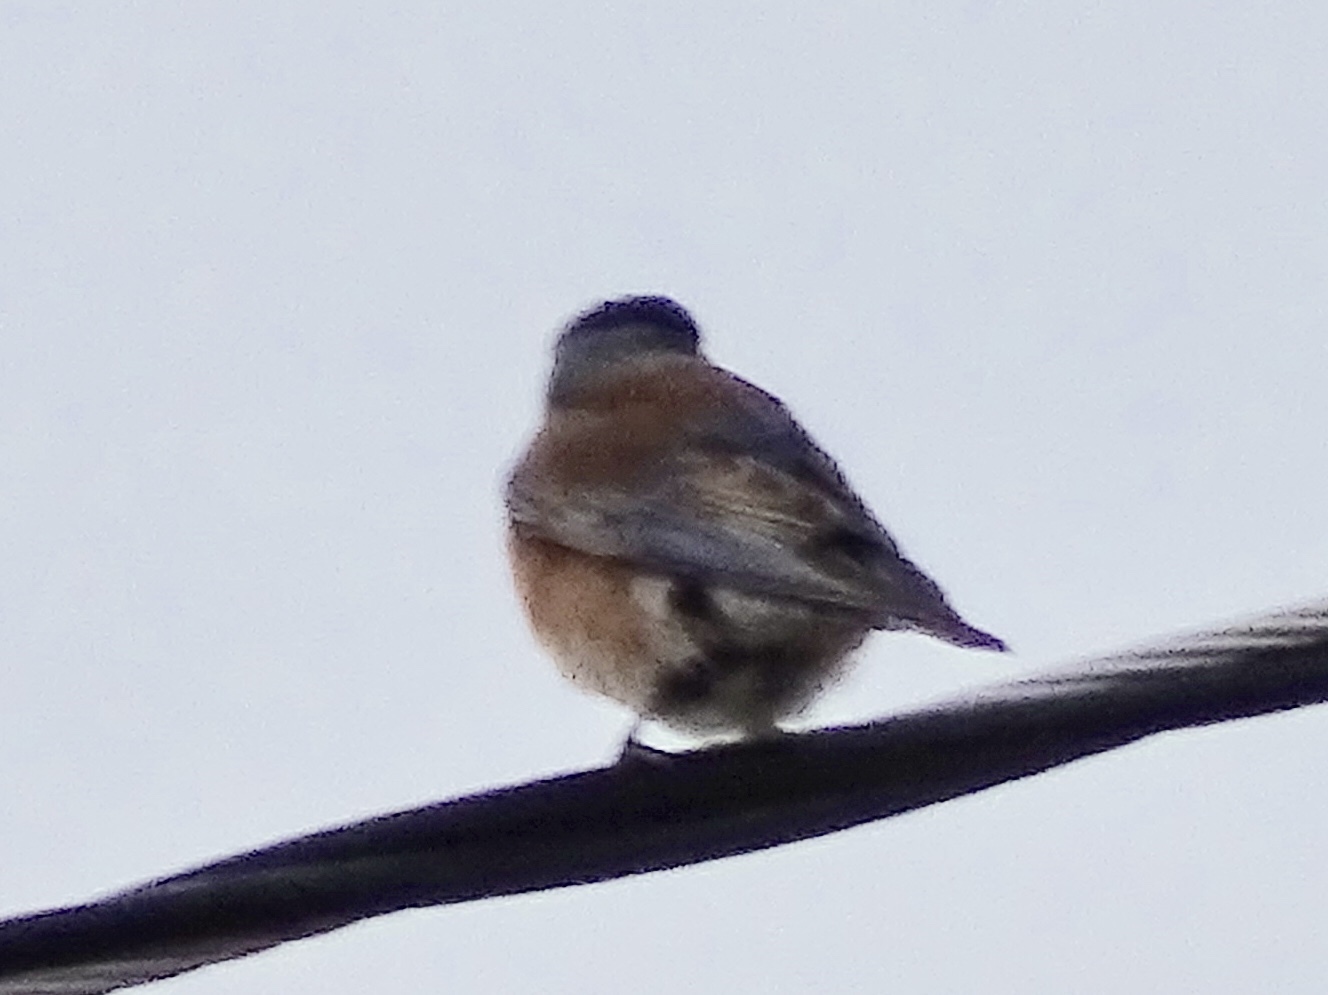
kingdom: Animalia
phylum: Chordata
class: Aves
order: Passeriformes
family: Turdidae
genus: Sialia
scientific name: Sialia mexicana
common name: Western bluebird
